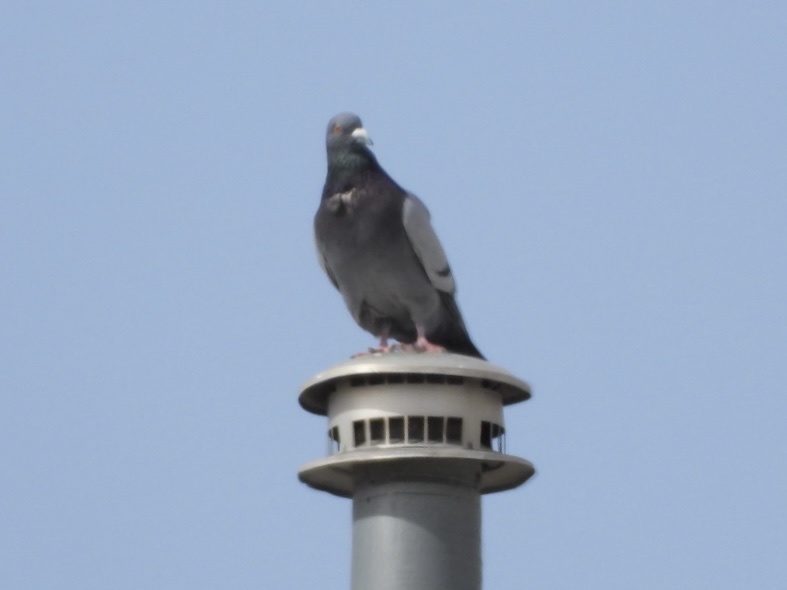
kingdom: Animalia
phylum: Chordata
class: Aves
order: Columbiformes
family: Columbidae
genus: Columba
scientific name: Columba livia
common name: Rock pigeon
